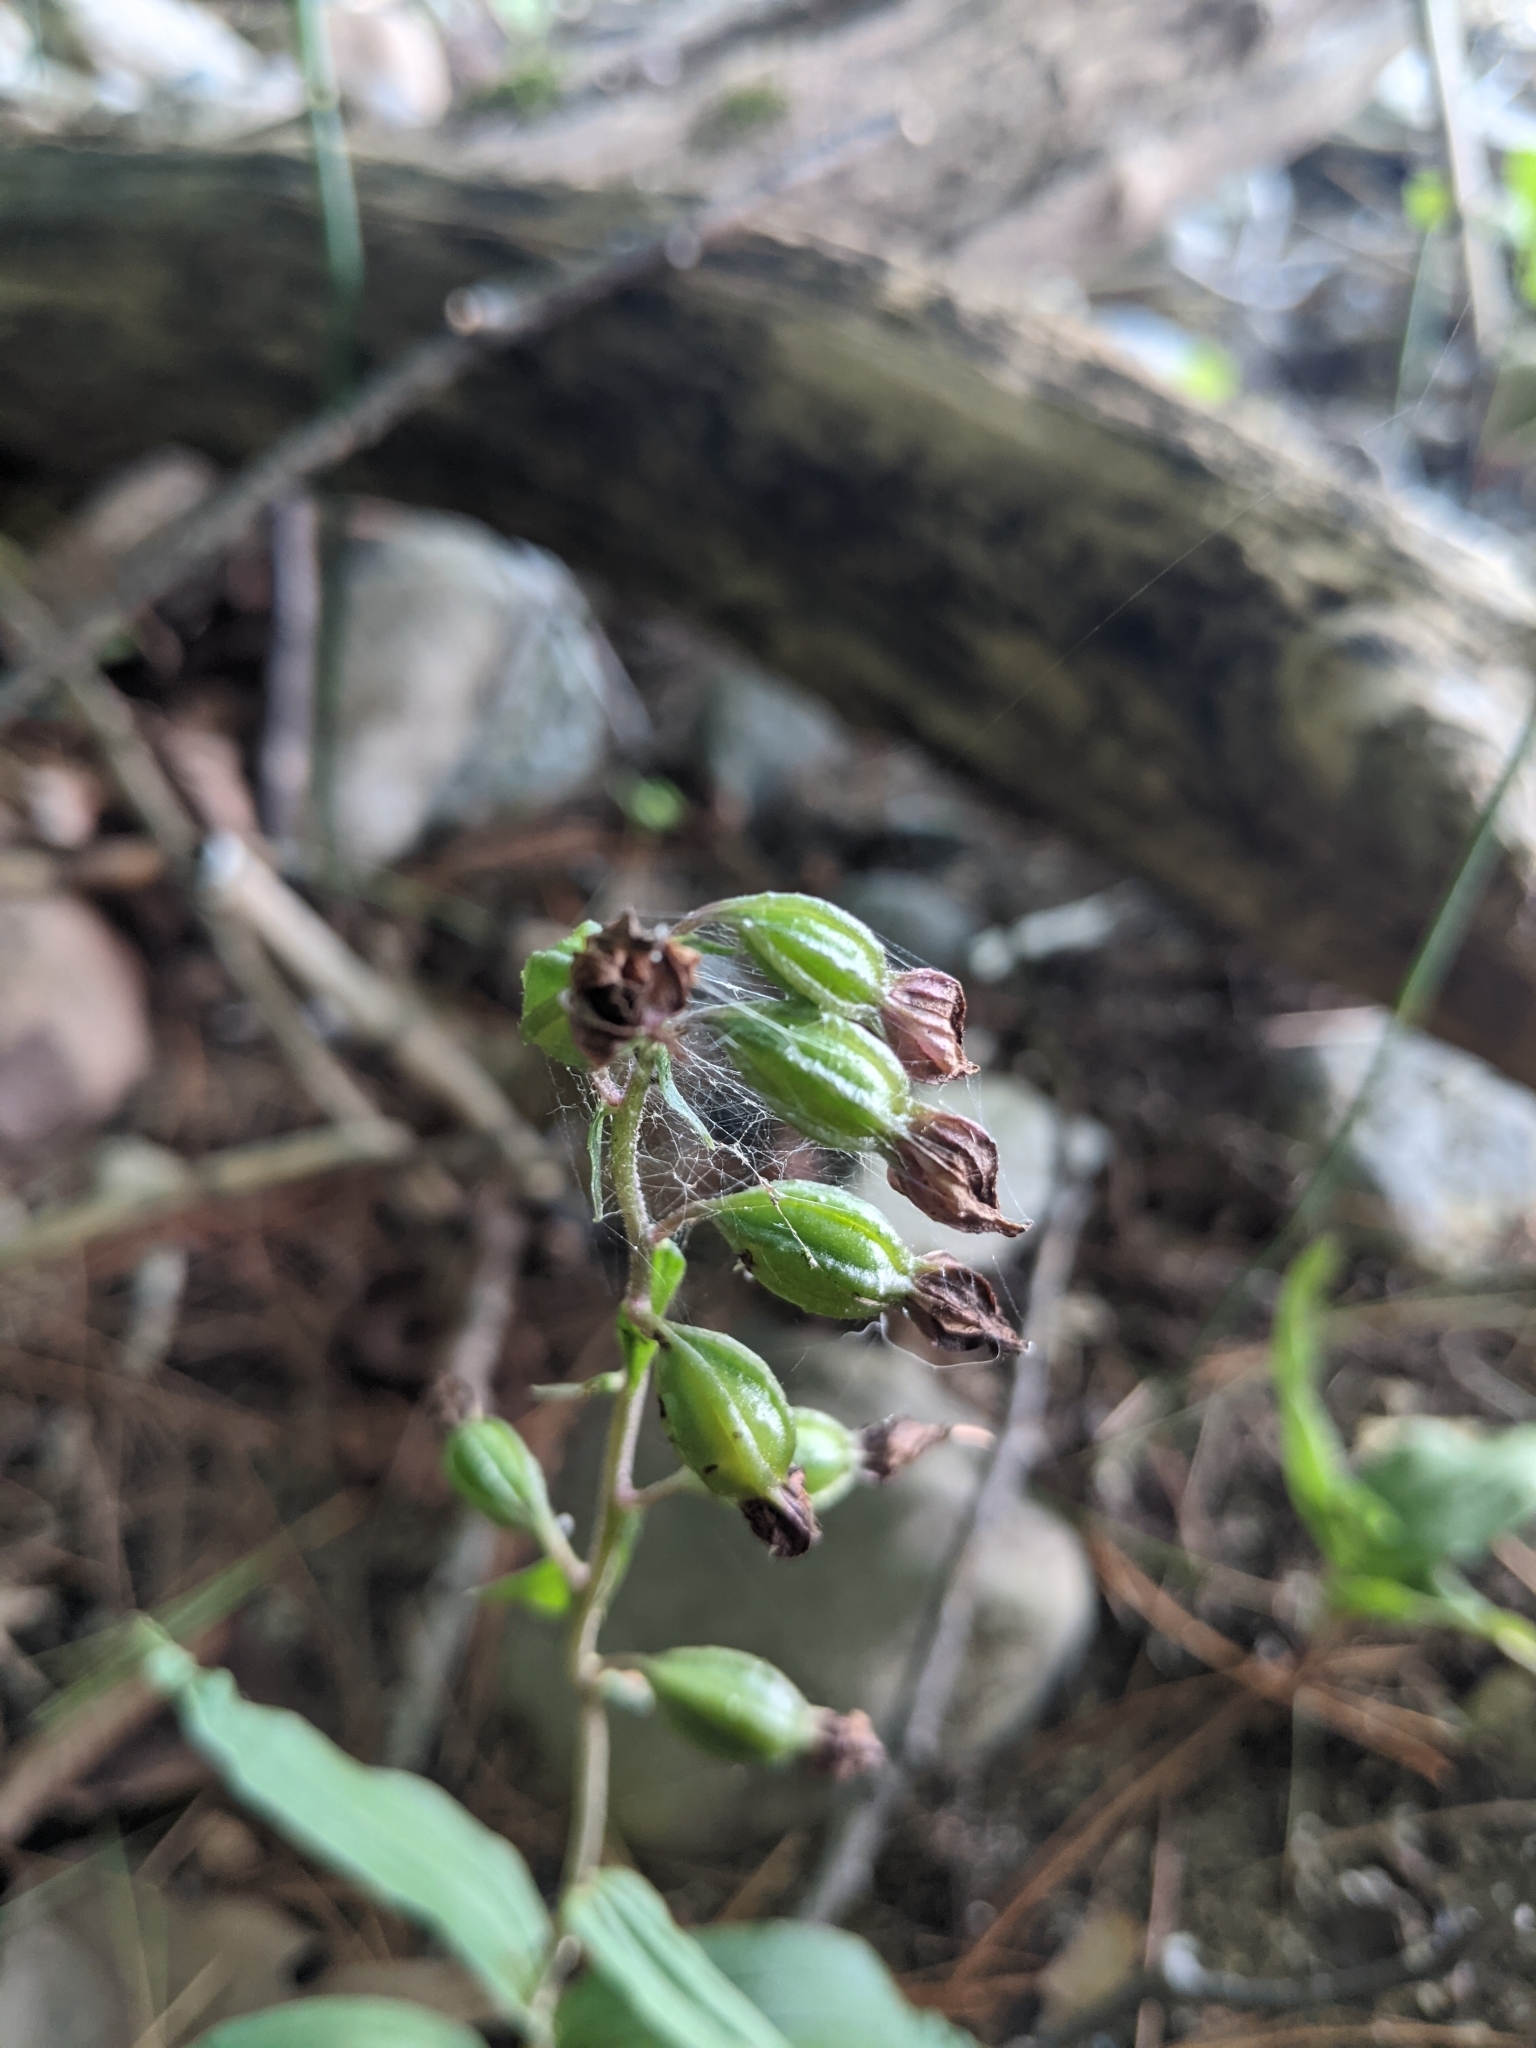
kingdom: Plantae
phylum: Tracheophyta
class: Liliopsida
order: Asparagales
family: Orchidaceae
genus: Epipactis
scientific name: Epipactis helleborine
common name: Broad-leaved helleborine
